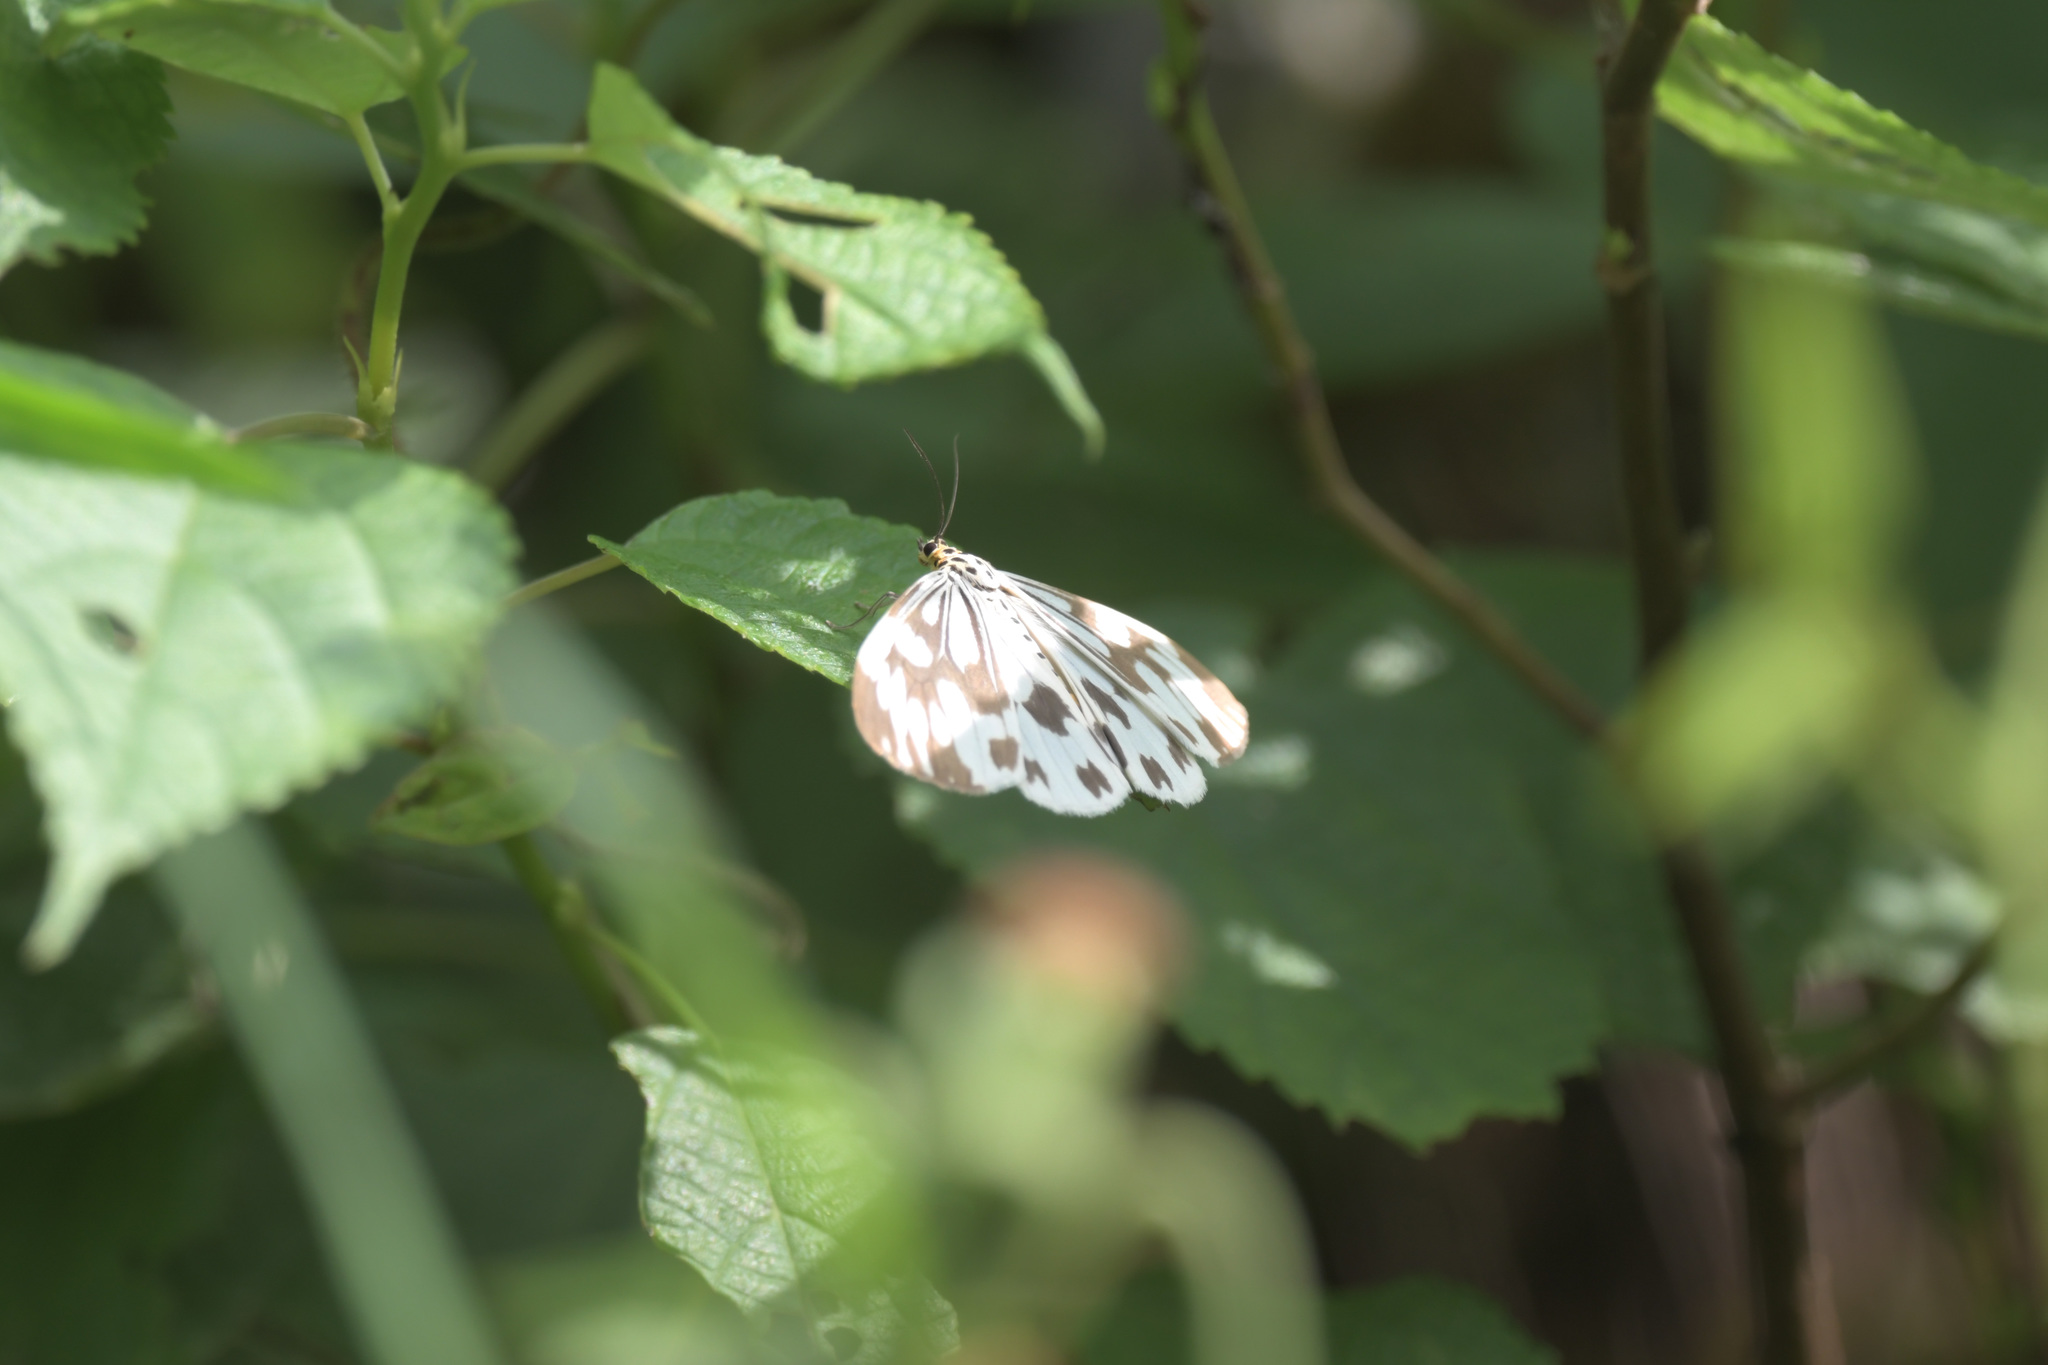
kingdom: Animalia
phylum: Arthropoda
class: Insecta
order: Lepidoptera
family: Erebidae
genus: Nyctemera
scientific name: Nyctemera adversata
